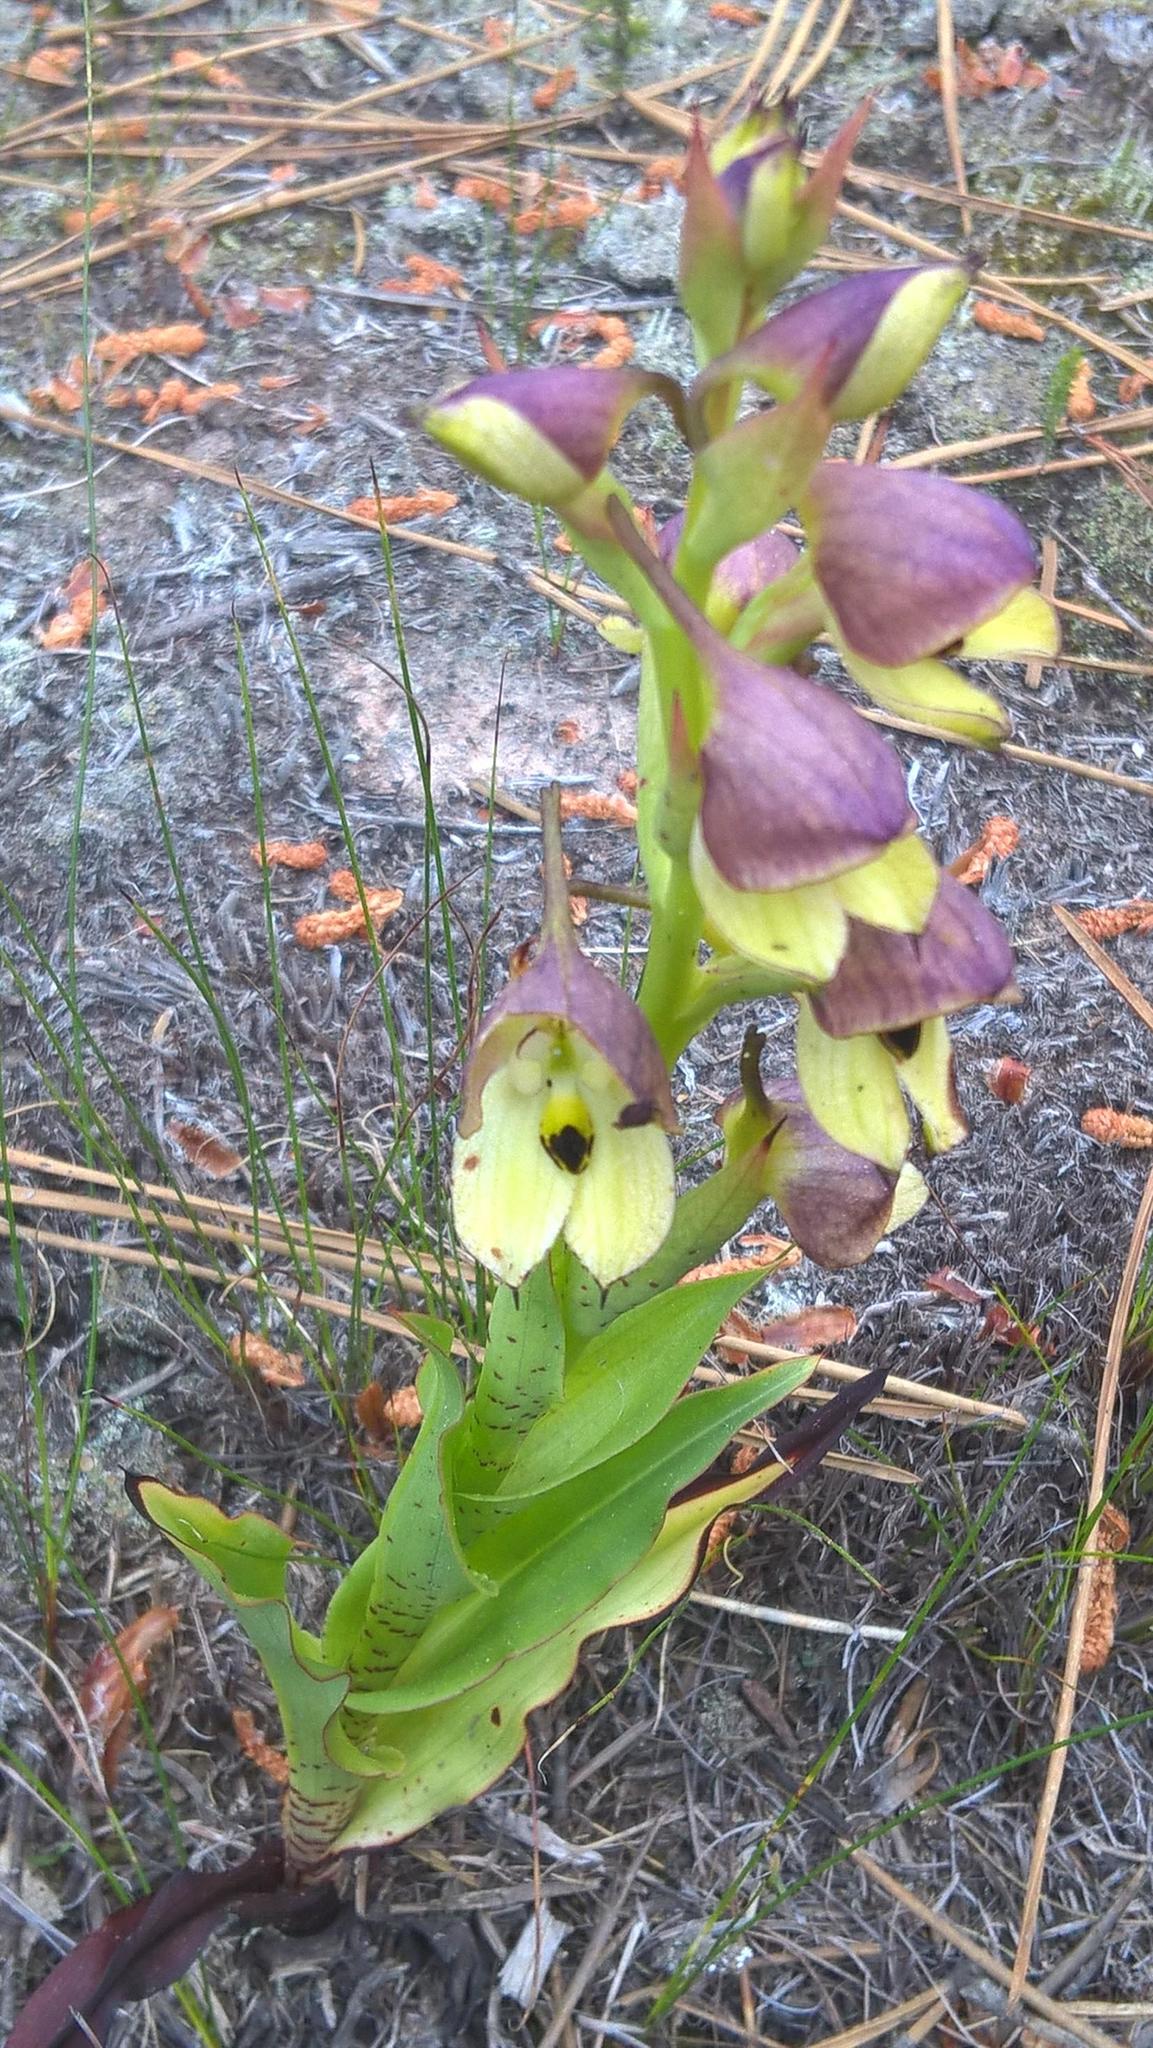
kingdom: Plantae
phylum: Tracheophyta
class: Liliopsida
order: Asparagales
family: Orchidaceae
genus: Disa
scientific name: Disa cornuta
